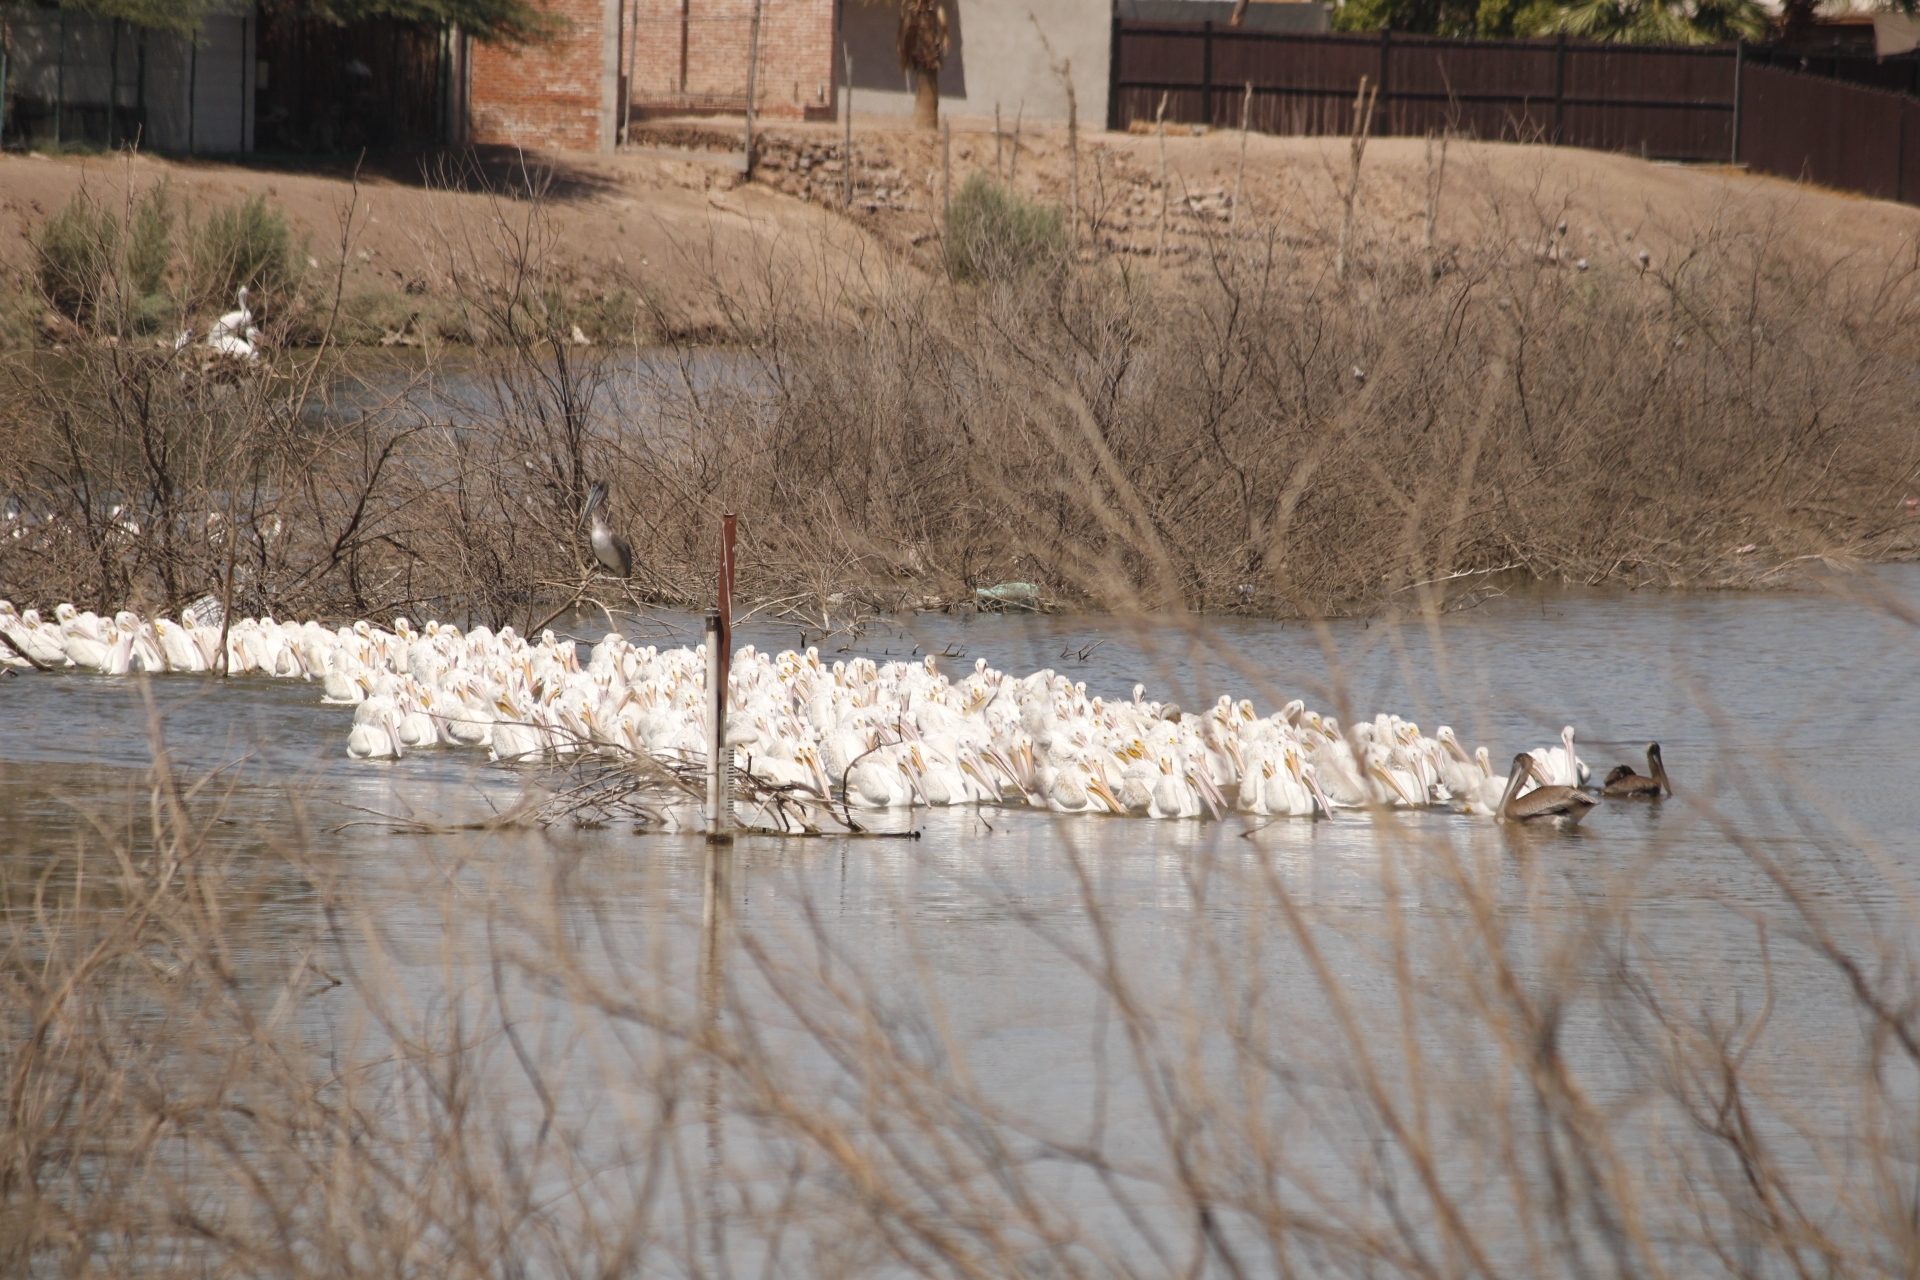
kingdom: Animalia
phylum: Chordata
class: Aves
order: Pelecaniformes
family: Pelecanidae
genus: Pelecanus
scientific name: Pelecanus erythrorhynchos
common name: American white pelican
